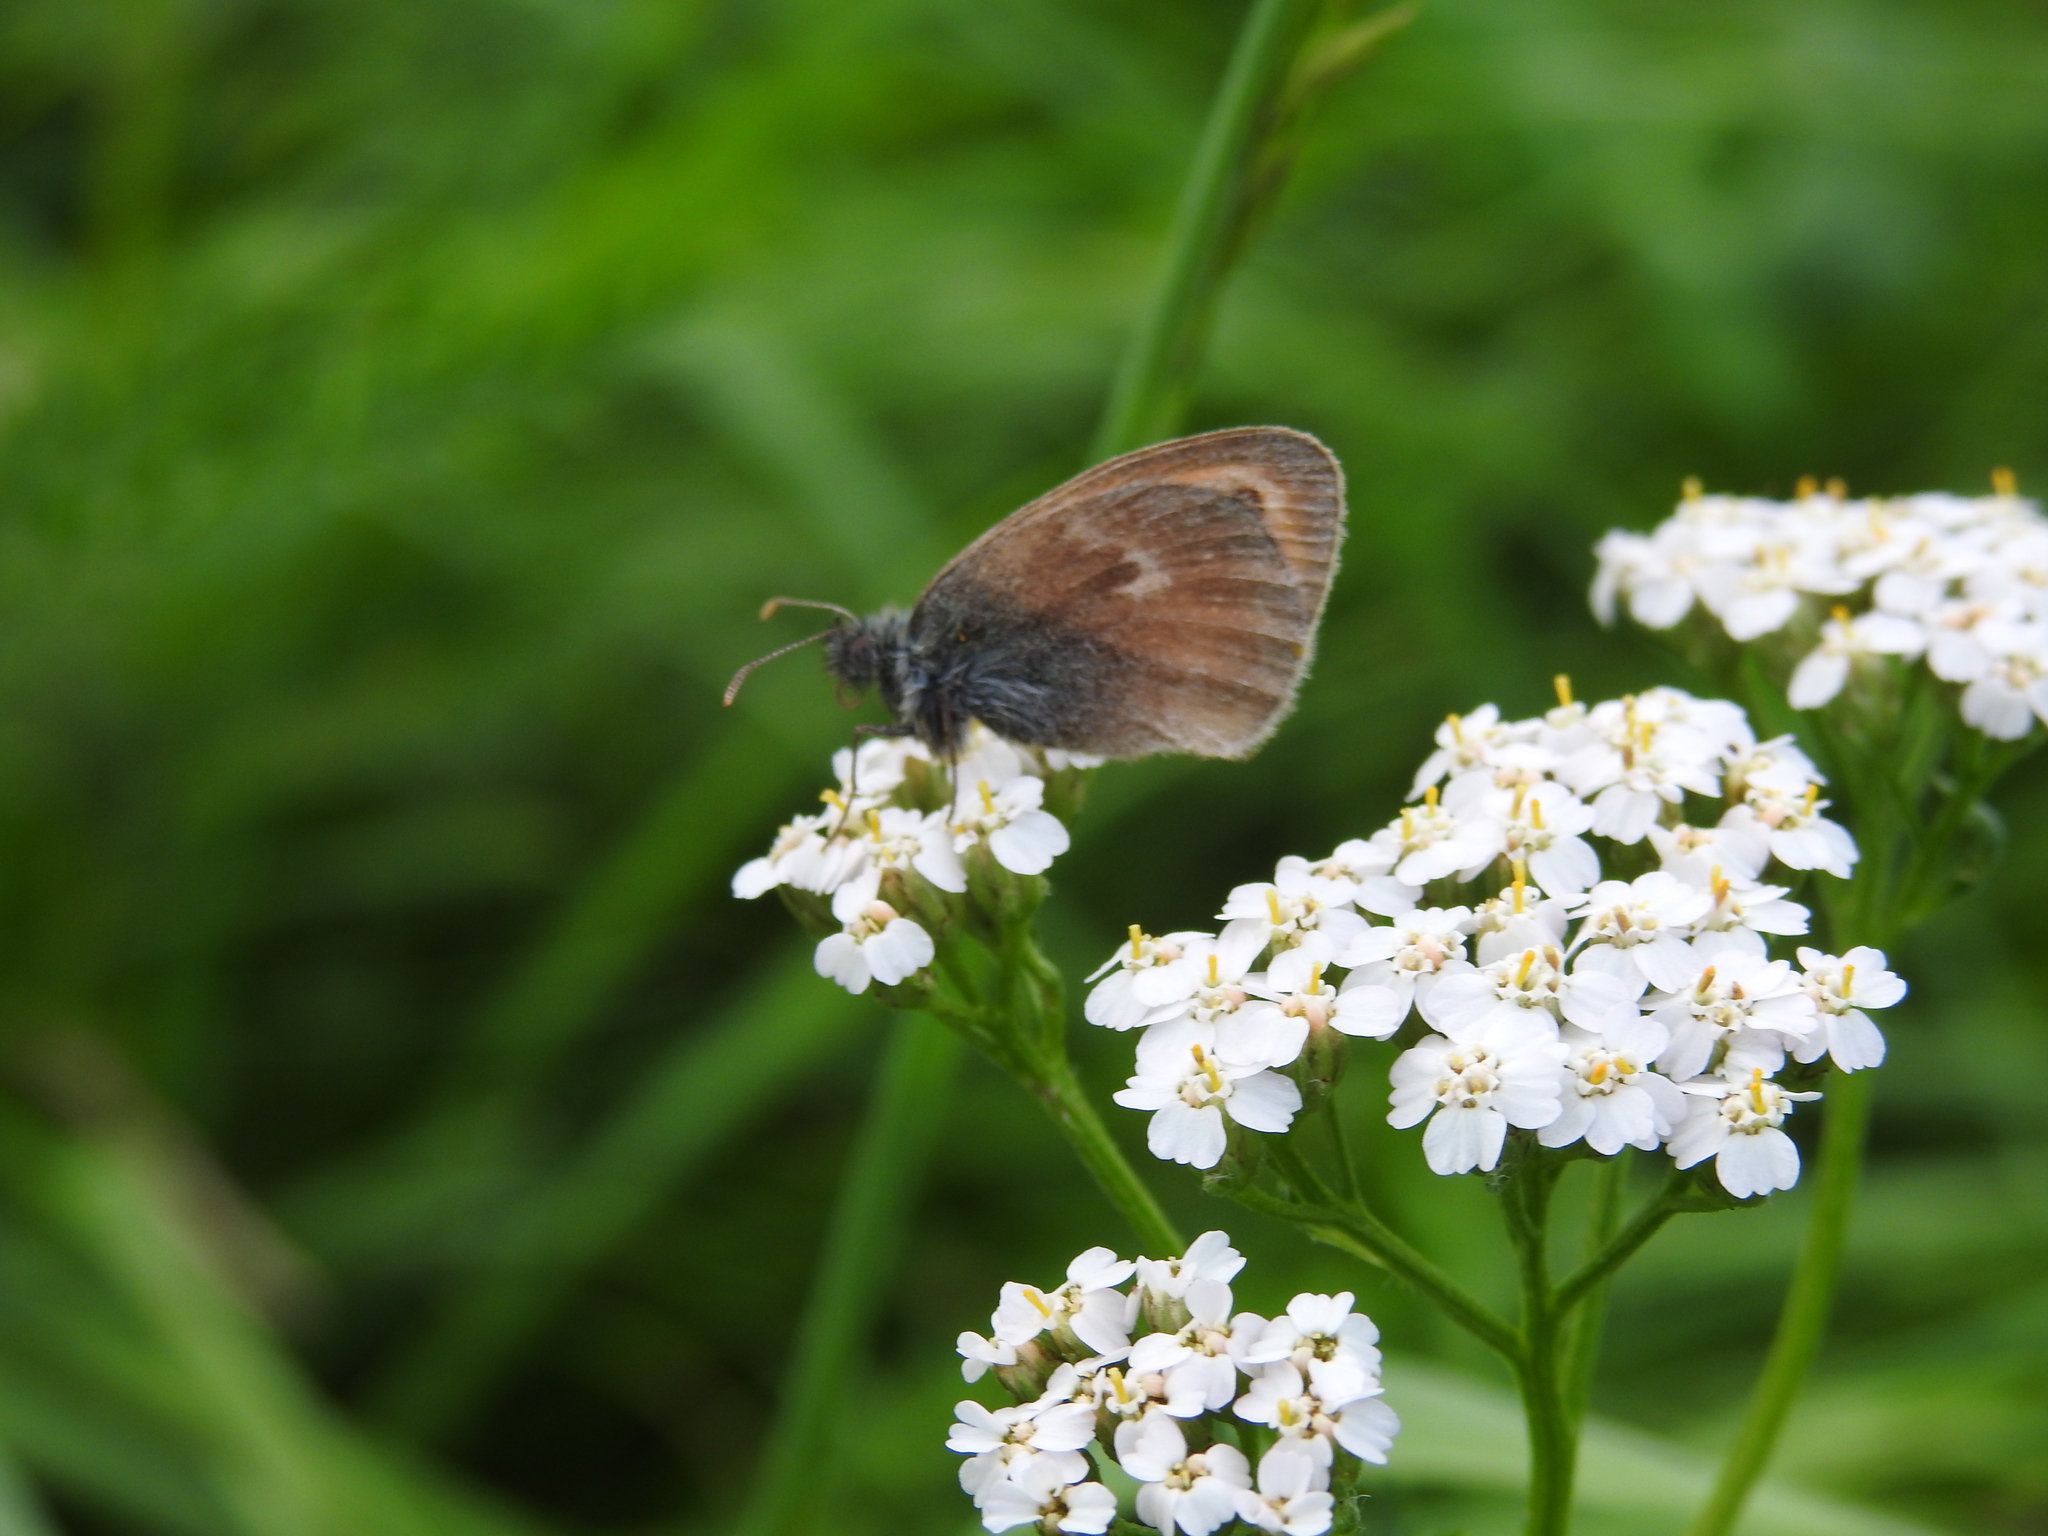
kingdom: Animalia
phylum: Arthropoda
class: Insecta
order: Lepidoptera
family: Nymphalidae
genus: Coenonympha
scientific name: Coenonympha pamphilus
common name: Small heath
